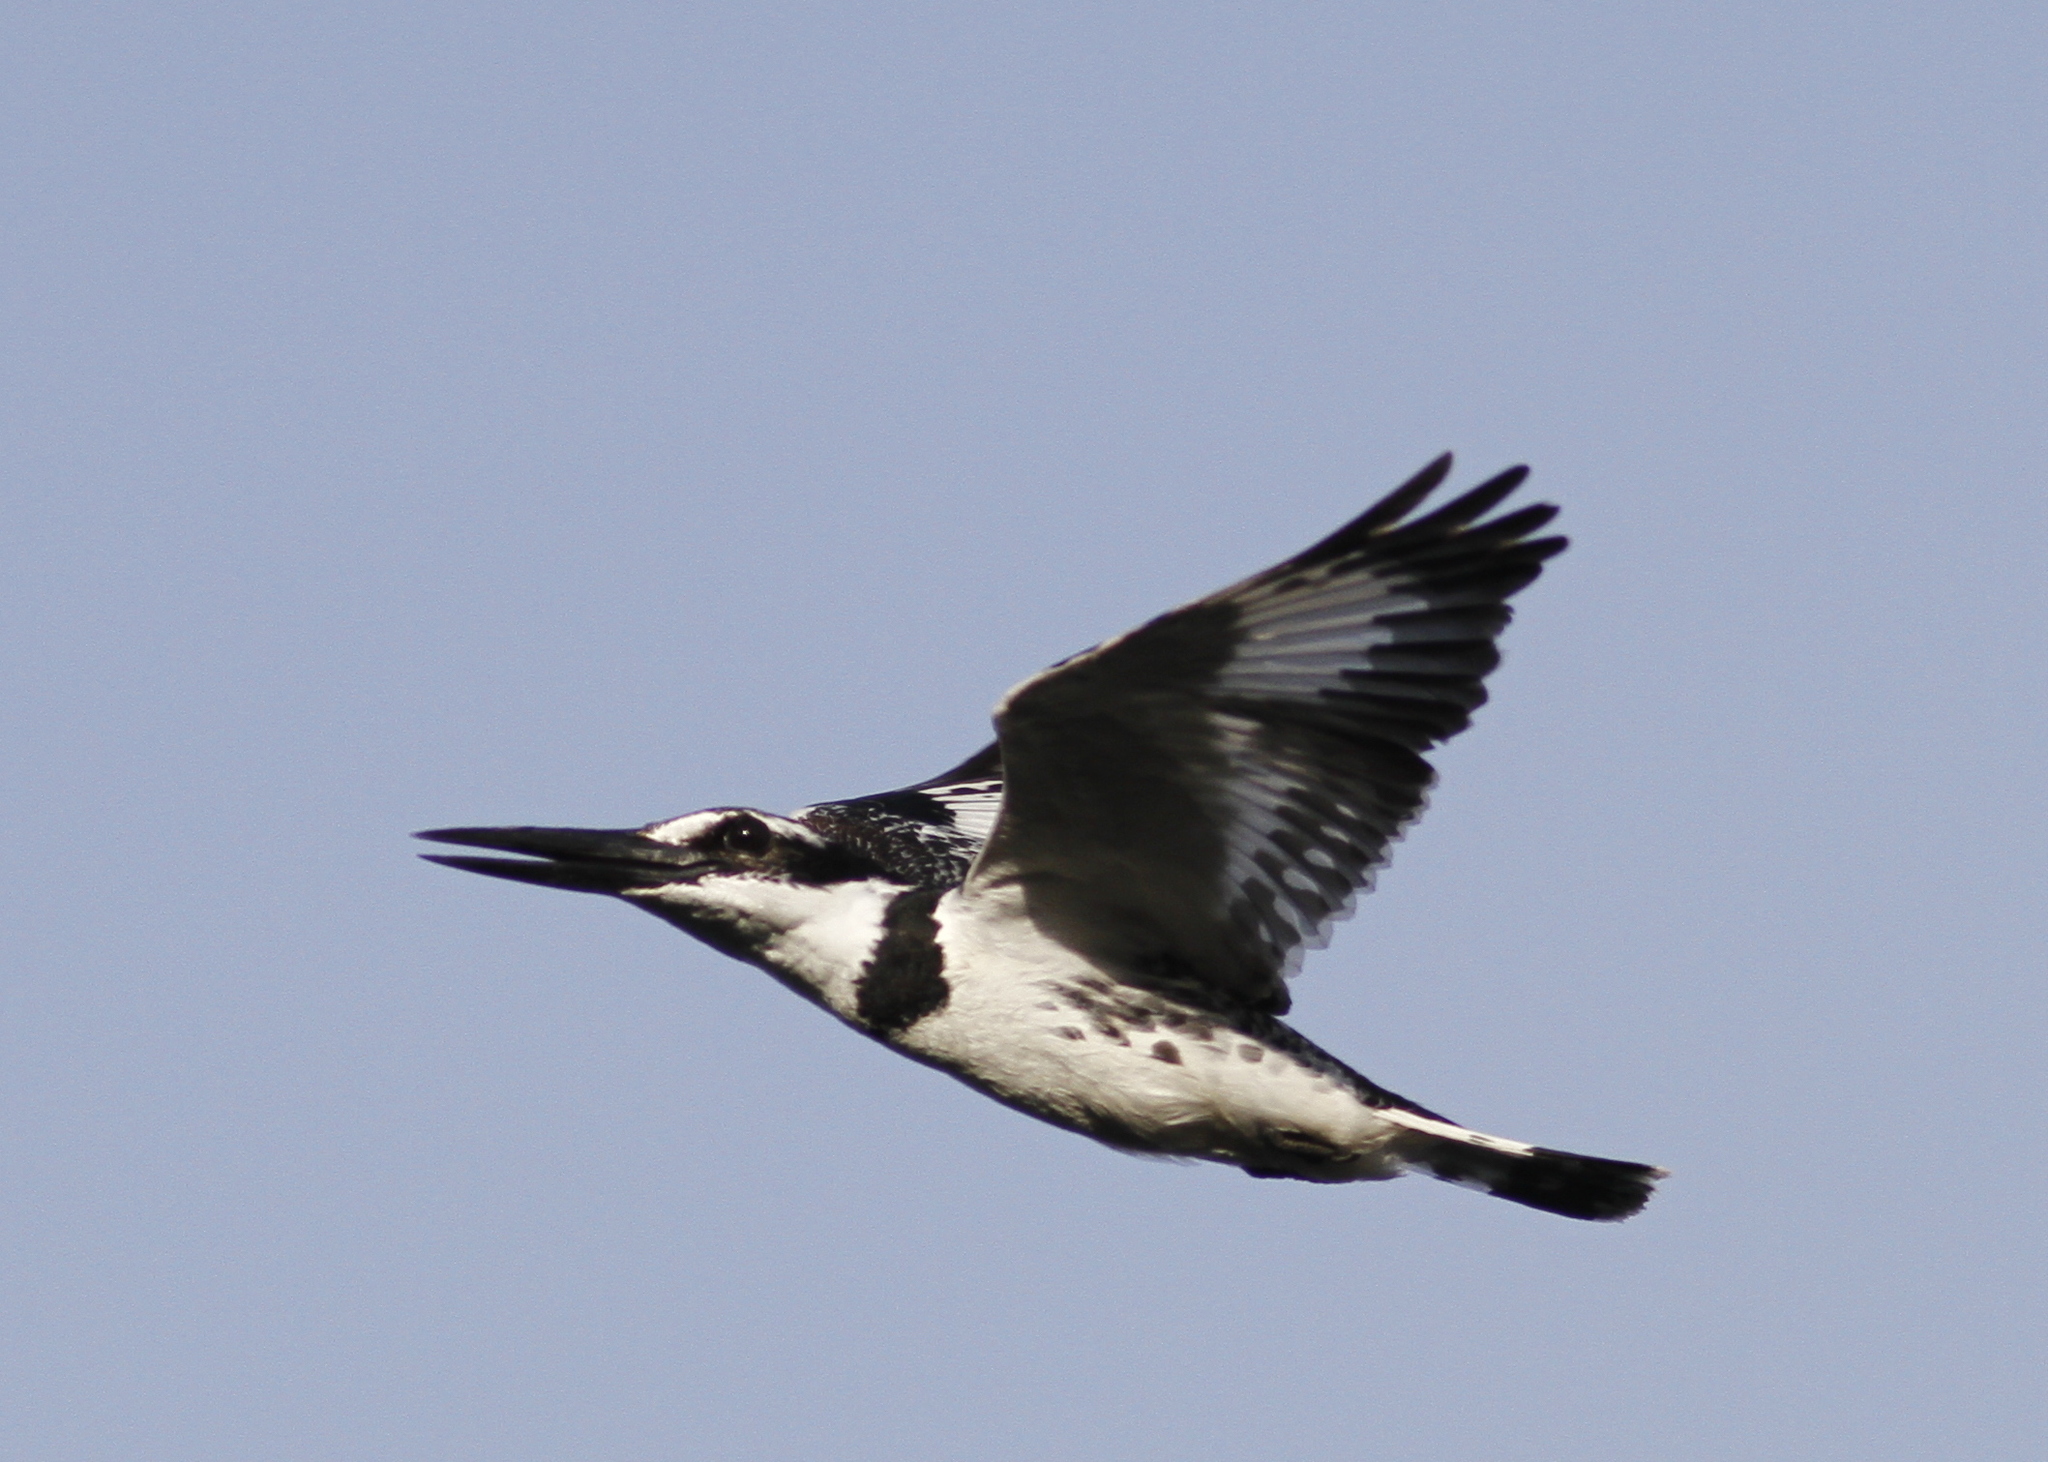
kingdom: Animalia
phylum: Chordata
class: Aves
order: Coraciiformes
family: Alcedinidae
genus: Ceryle
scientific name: Ceryle rudis
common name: Pied kingfisher
